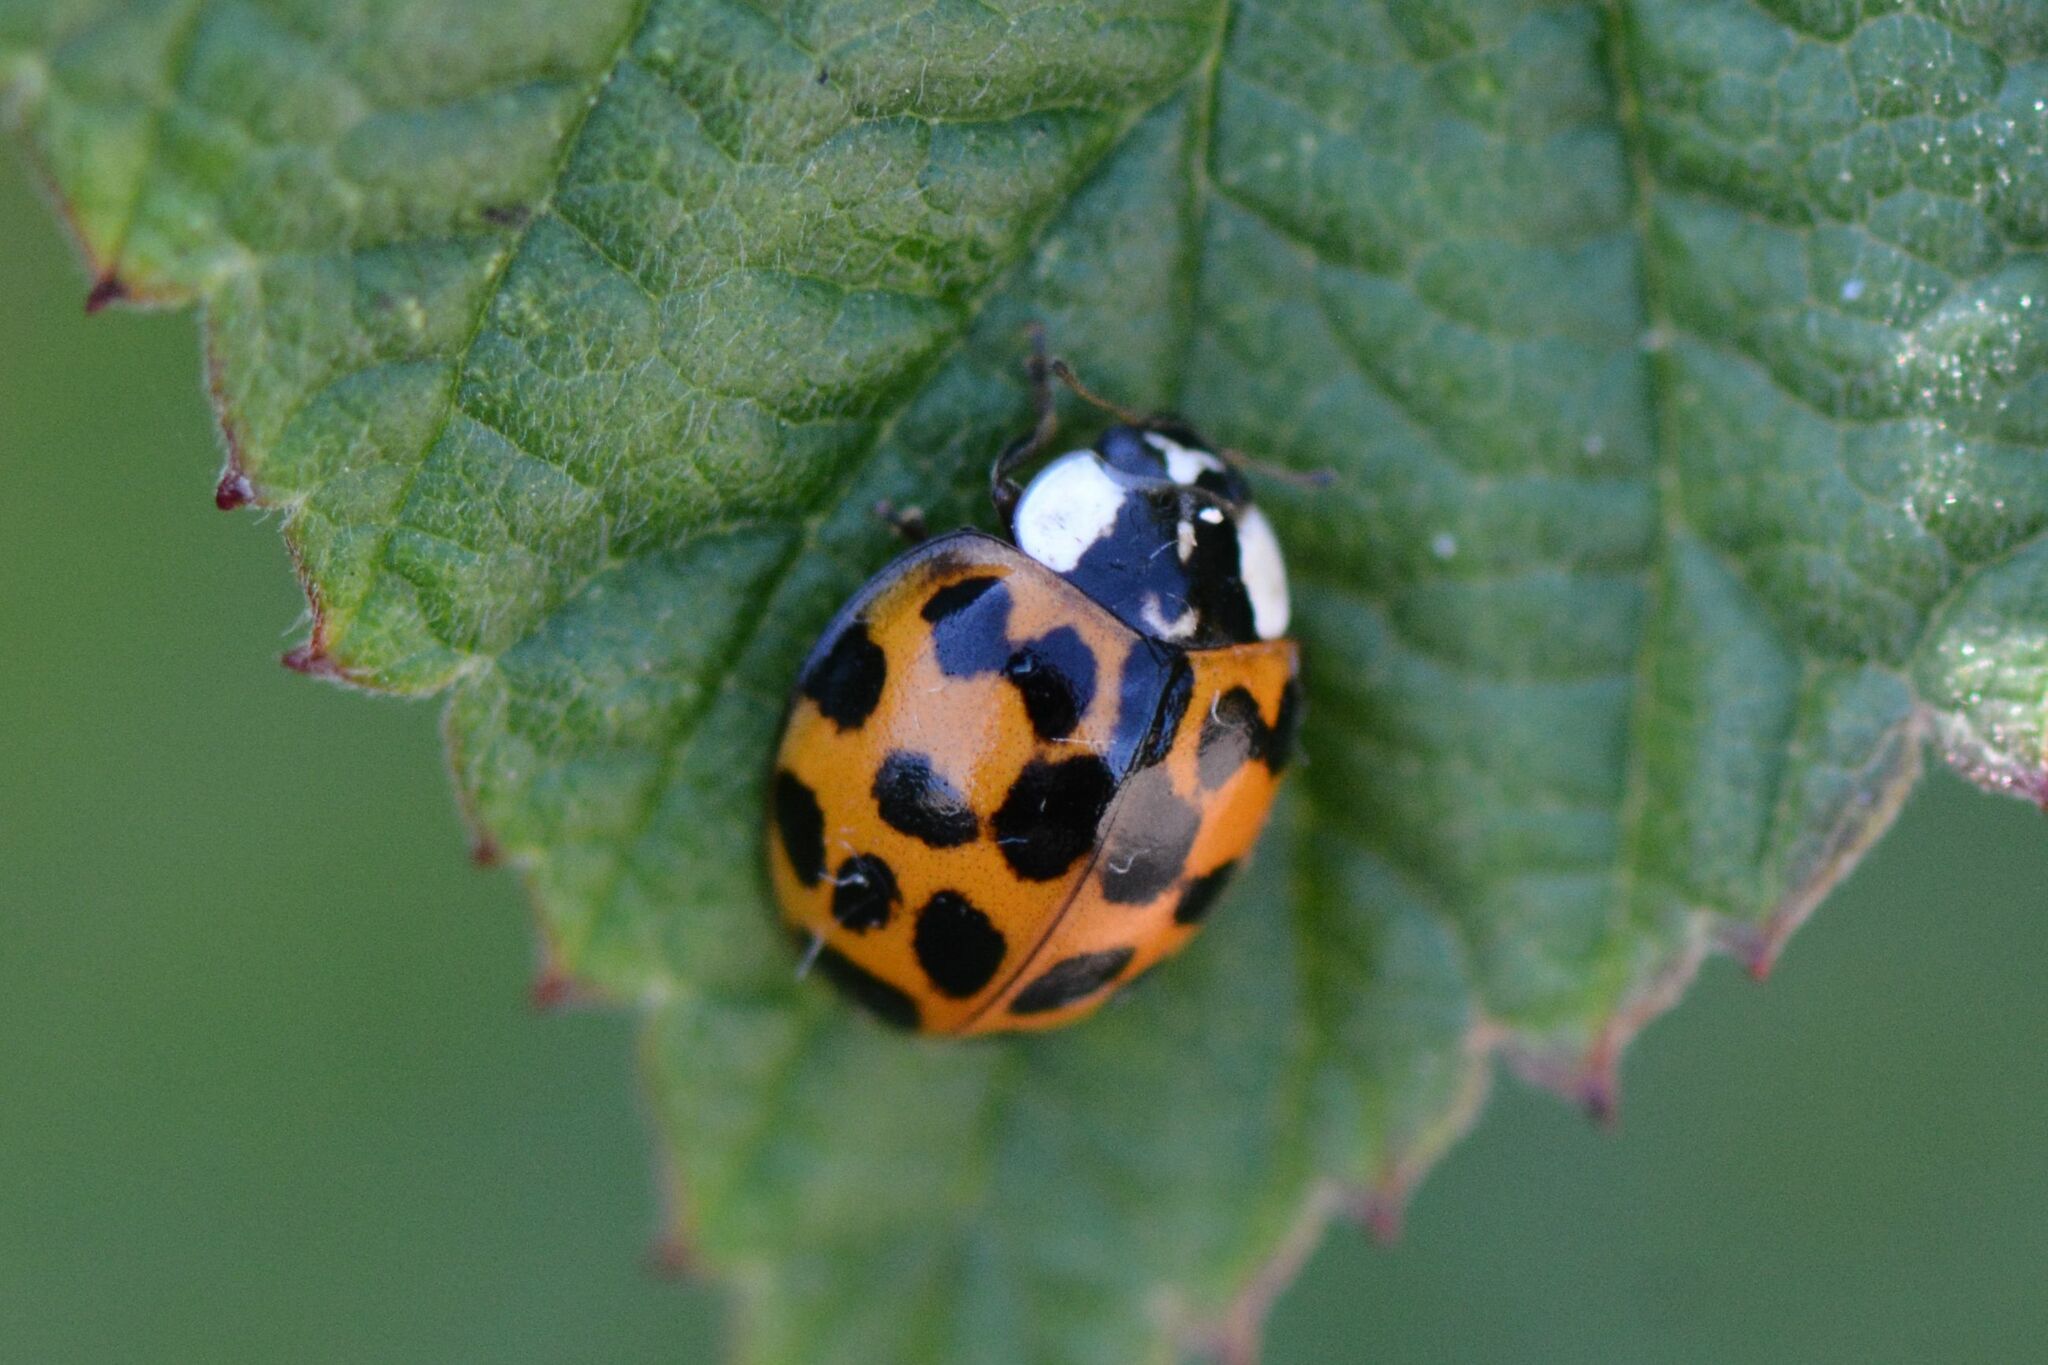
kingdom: Animalia
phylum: Arthropoda
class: Insecta
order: Coleoptera
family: Coccinellidae
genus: Harmonia
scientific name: Harmonia axyridis
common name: Harlequin ladybird
